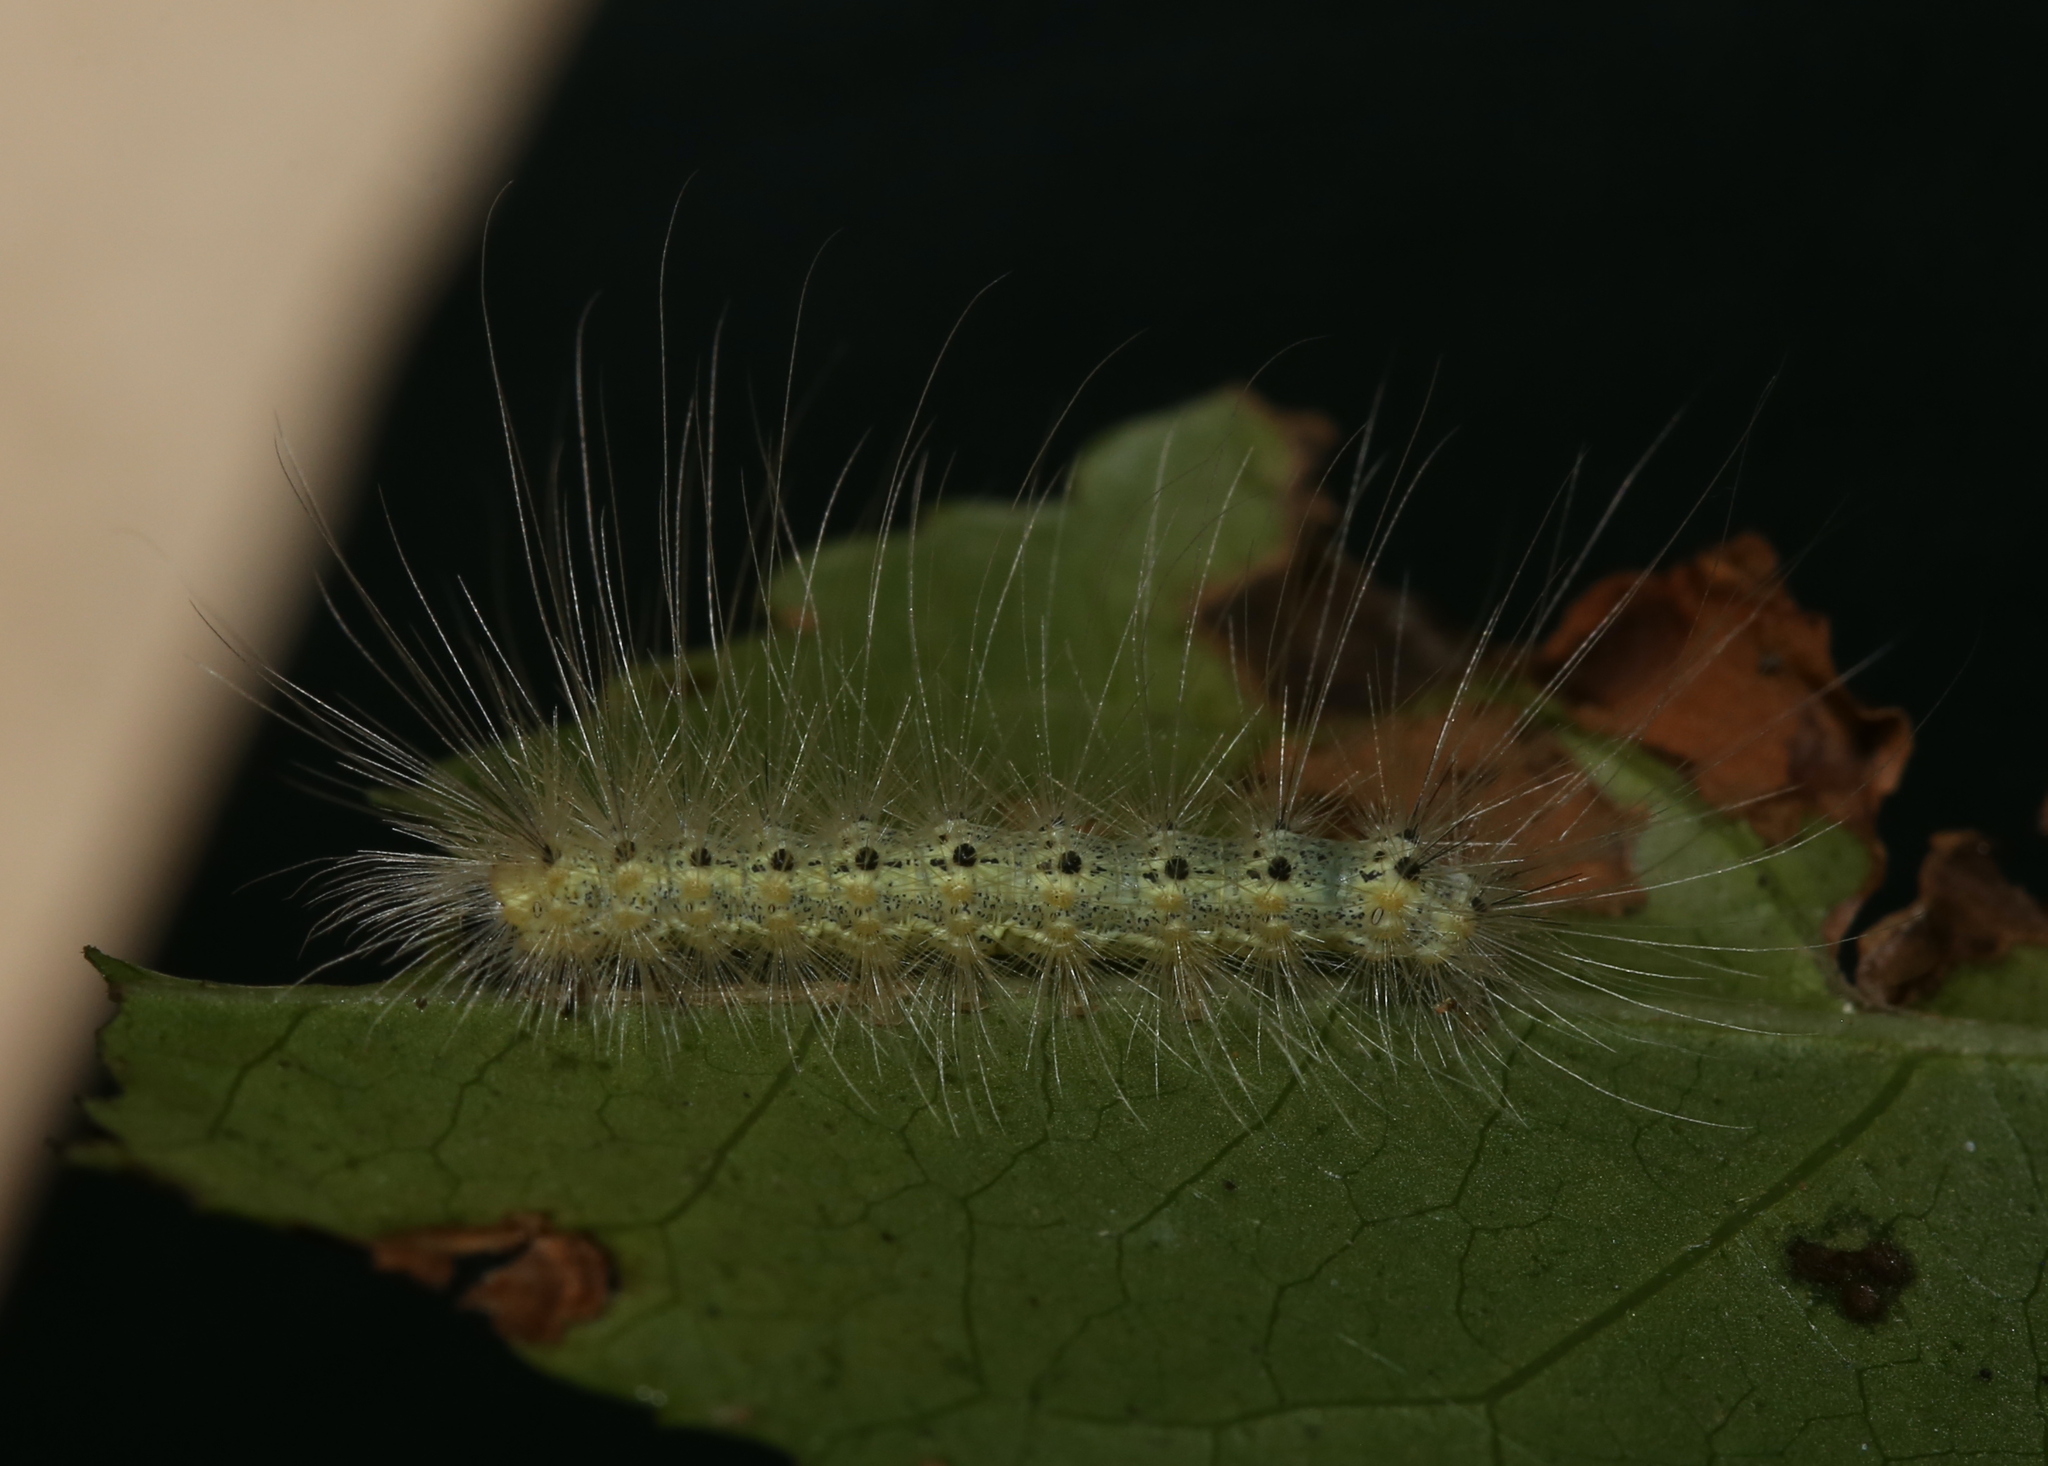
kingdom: Animalia
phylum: Arthropoda
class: Insecta
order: Lepidoptera
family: Erebidae
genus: Hyphantria
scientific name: Hyphantria cunea
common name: American white moth
